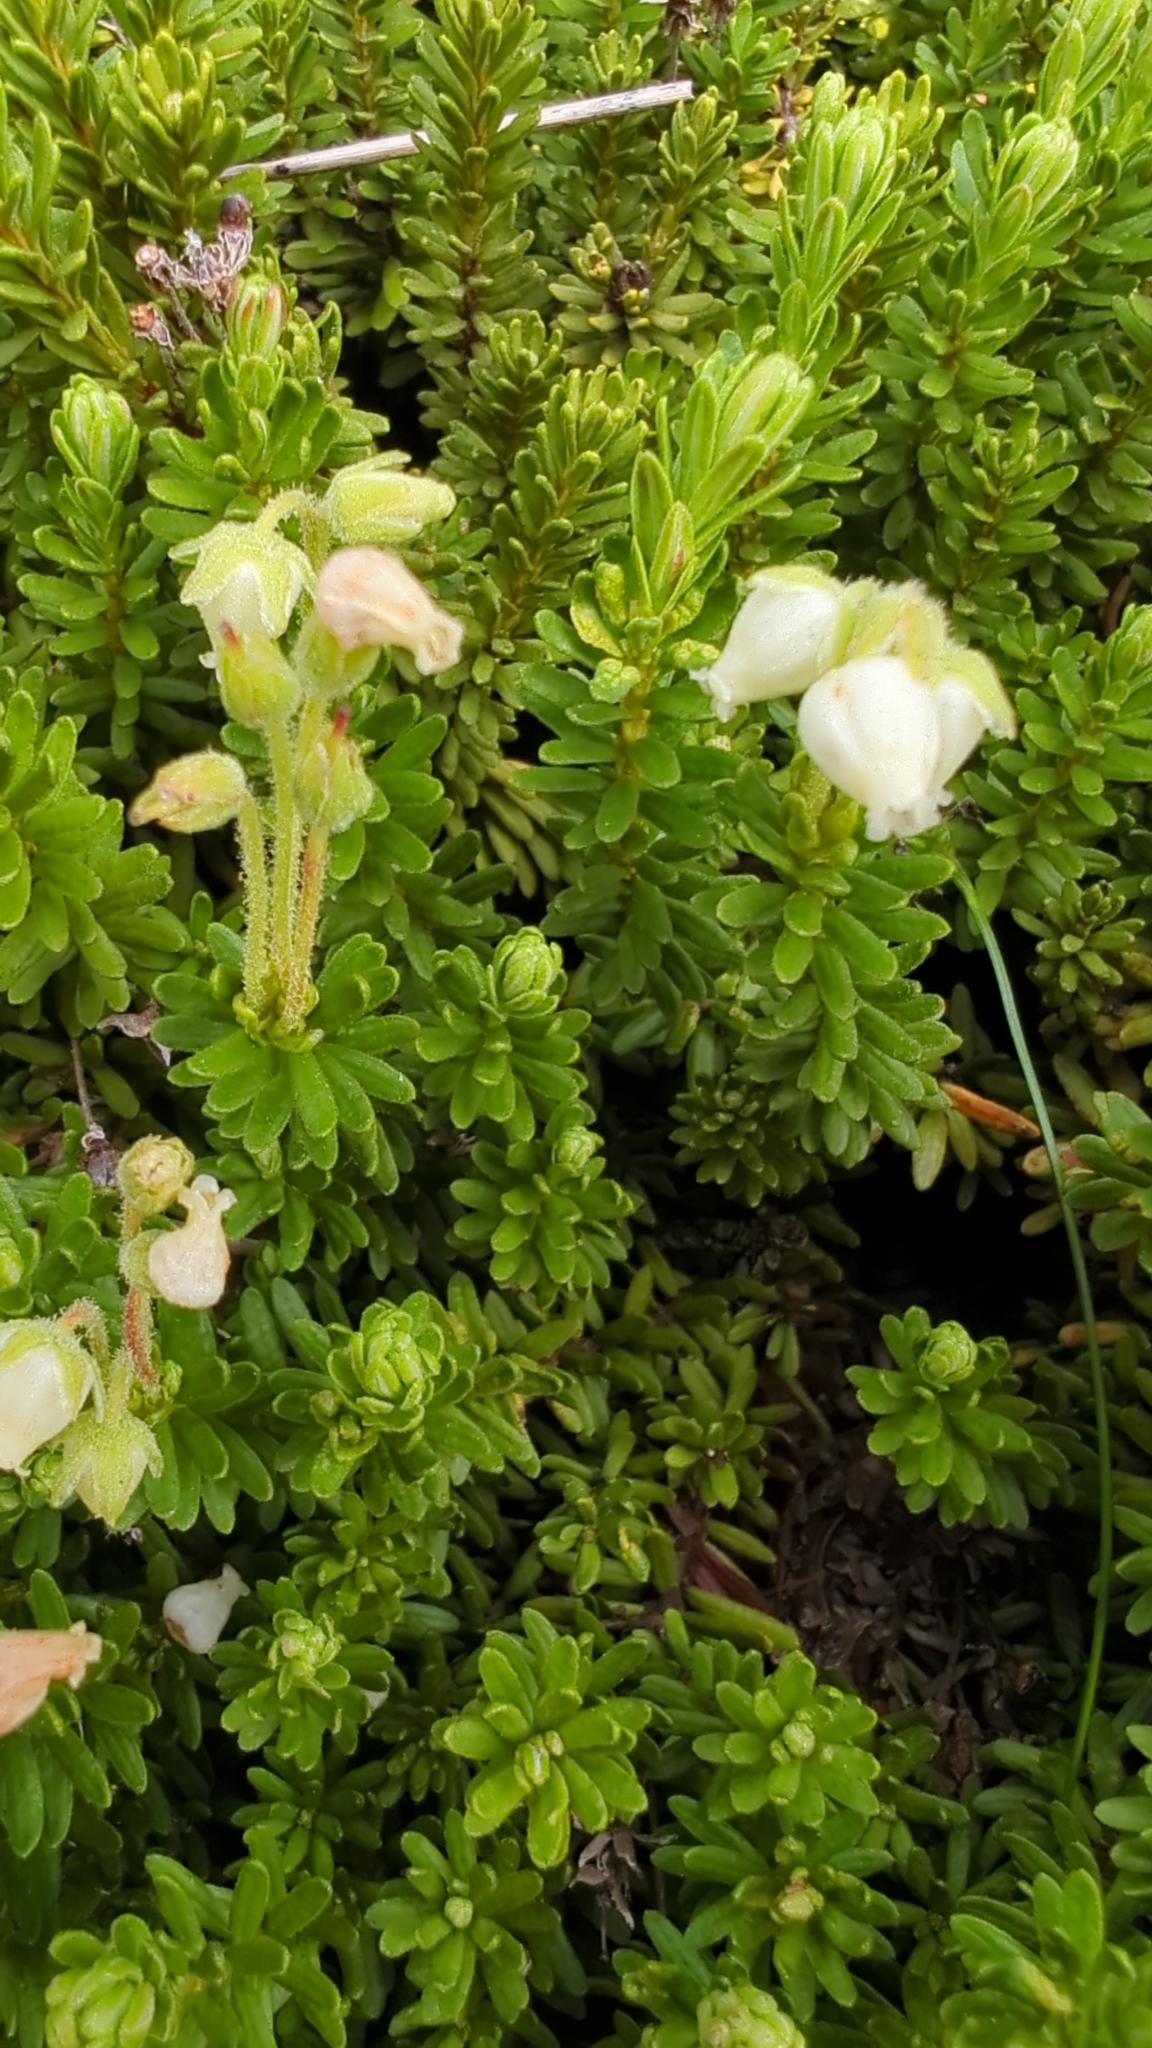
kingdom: Plantae
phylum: Tracheophyta
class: Magnoliopsida
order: Ericales
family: Ericaceae
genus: Phyllodoce
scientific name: Phyllodoce glanduliflora
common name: Cream mountain heather
